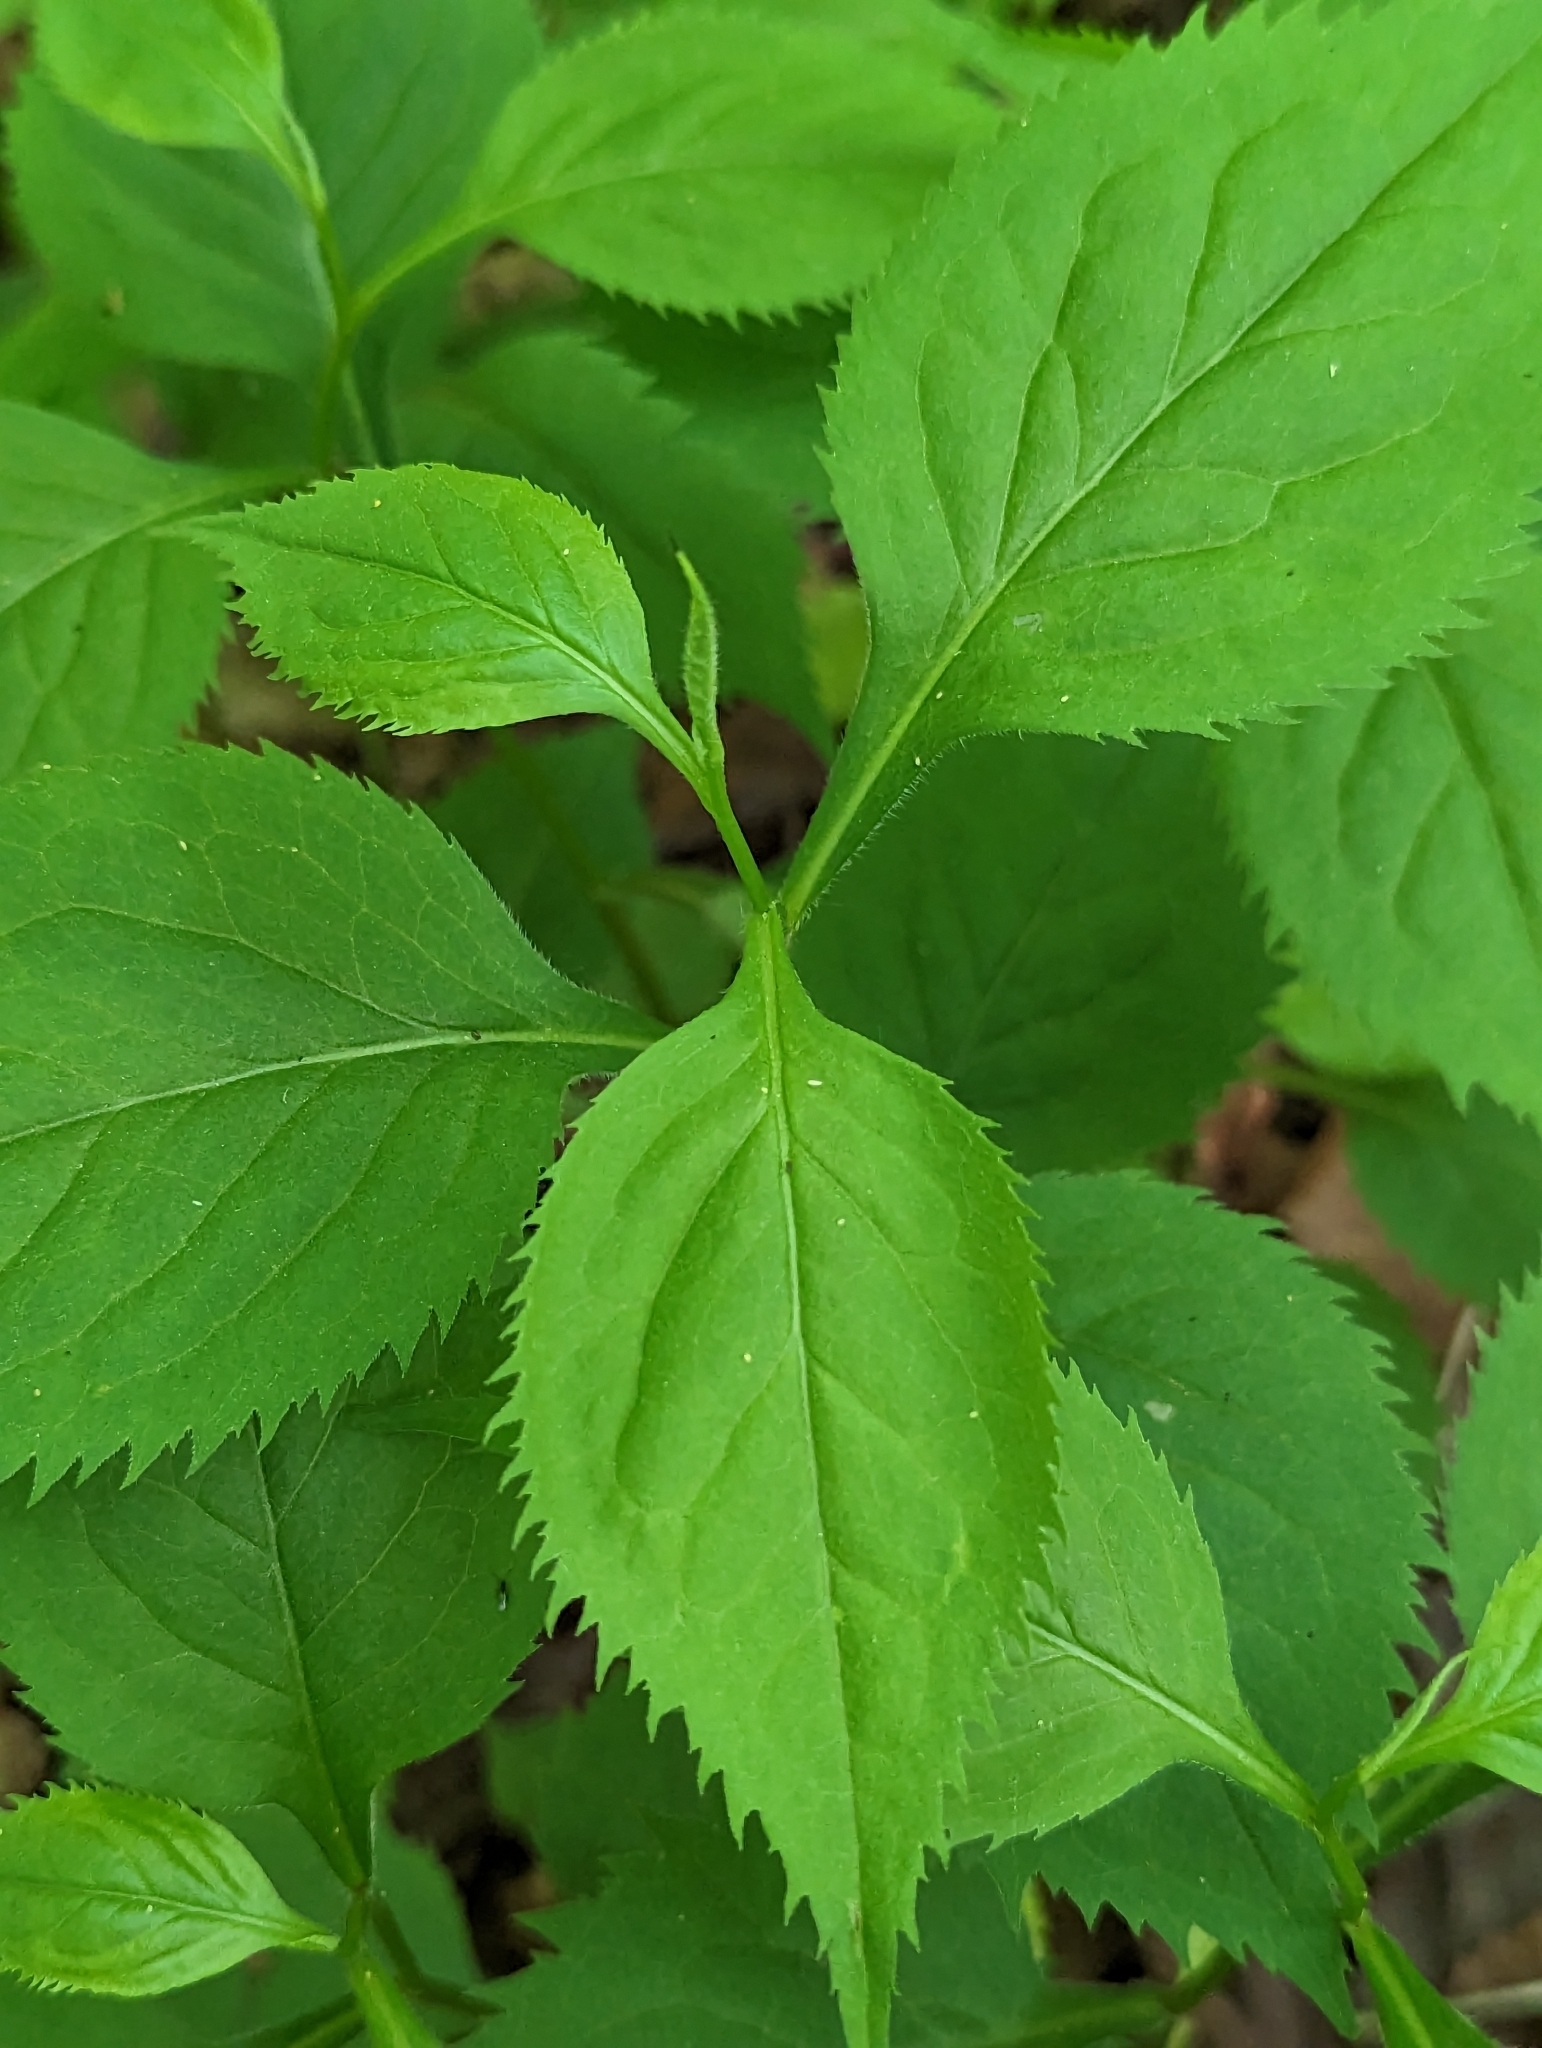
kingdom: Plantae
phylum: Tracheophyta
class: Magnoliopsida
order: Asterales
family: Asteraceae
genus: Solidago
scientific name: Solidago flexicaulis
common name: Zig-zag goldenrod
